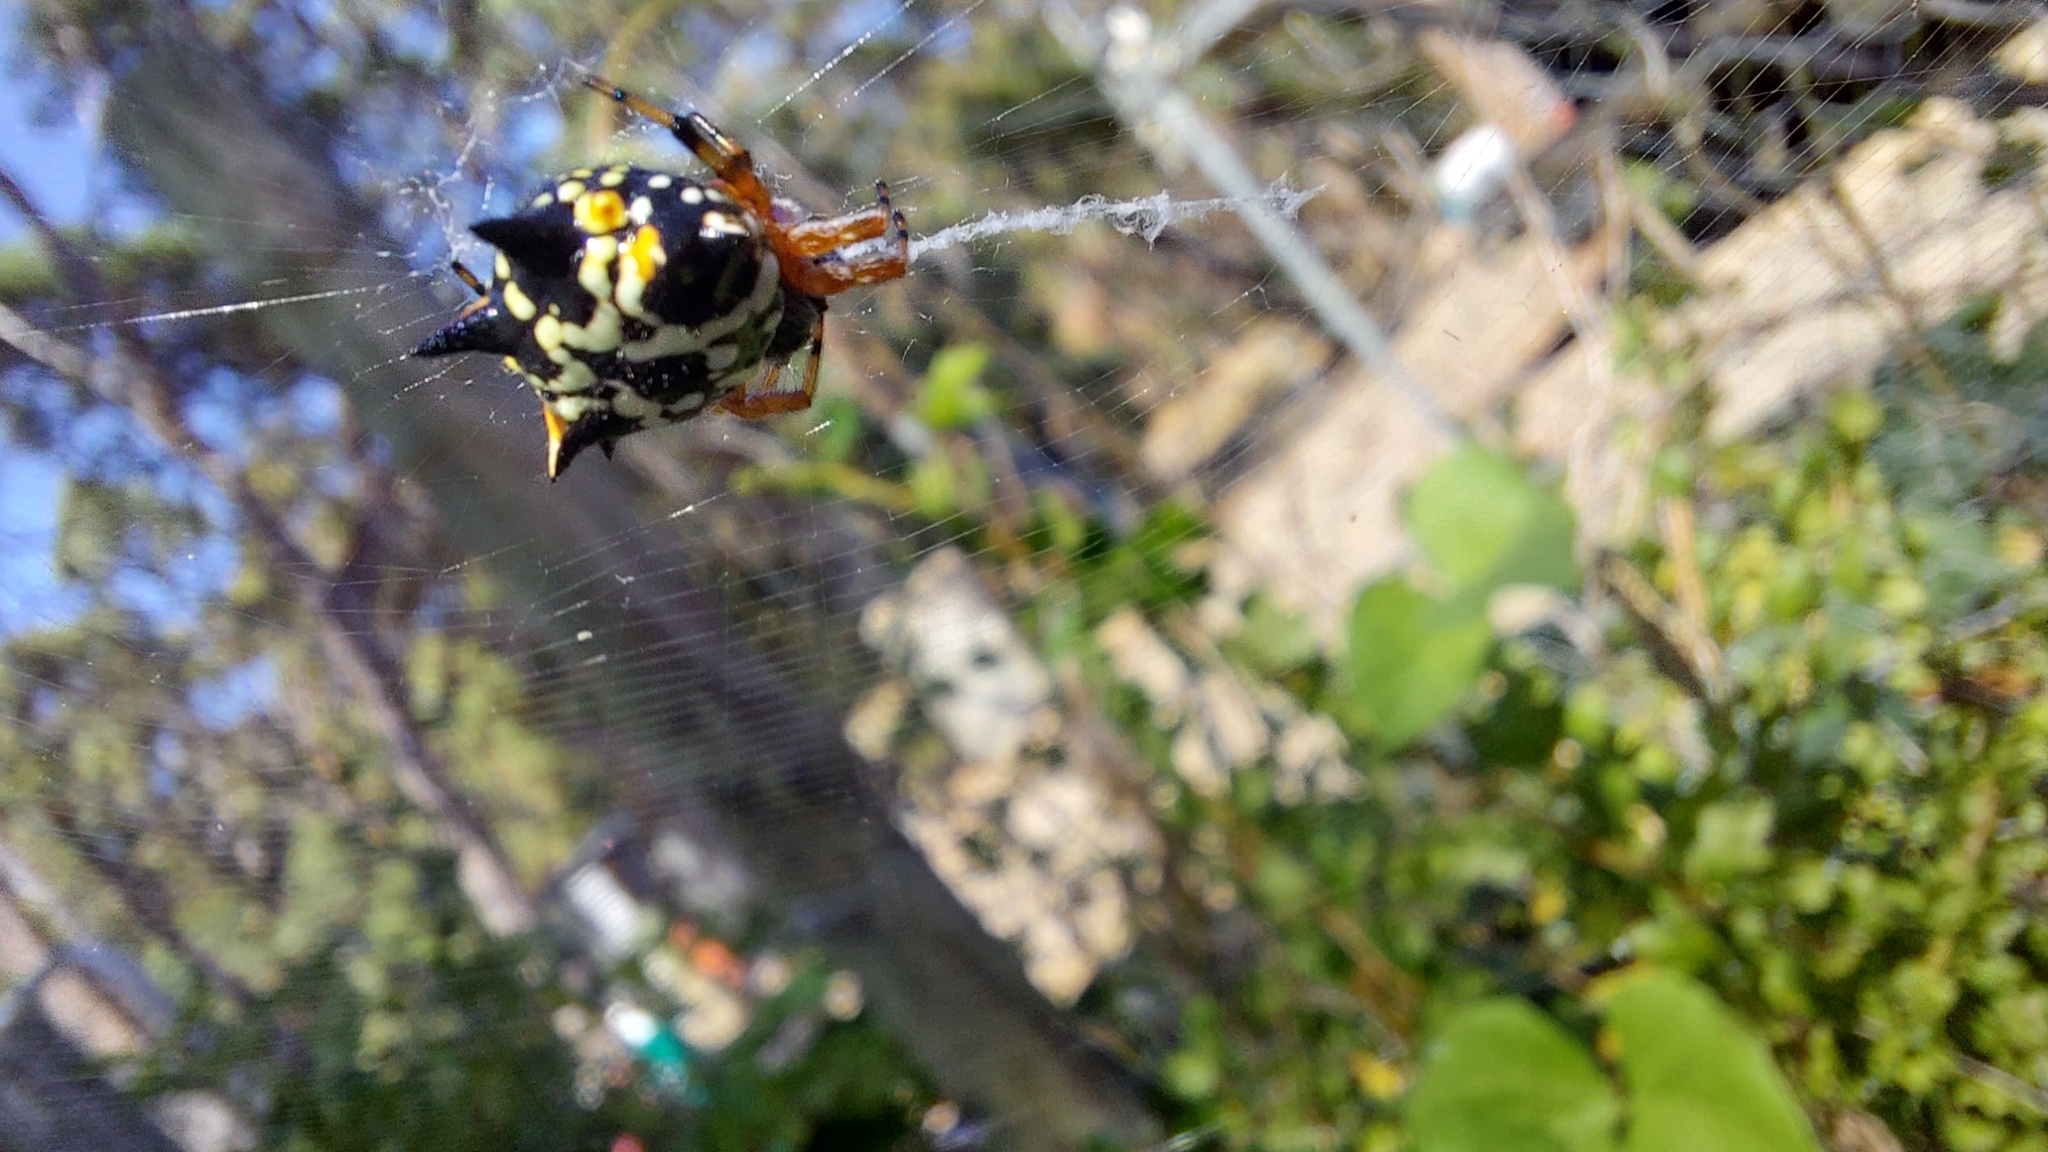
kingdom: Animalia
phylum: Arthropoda
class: Arachnida
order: Araneae
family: Araneidae
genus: Austracantha
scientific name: Austracantha minax
